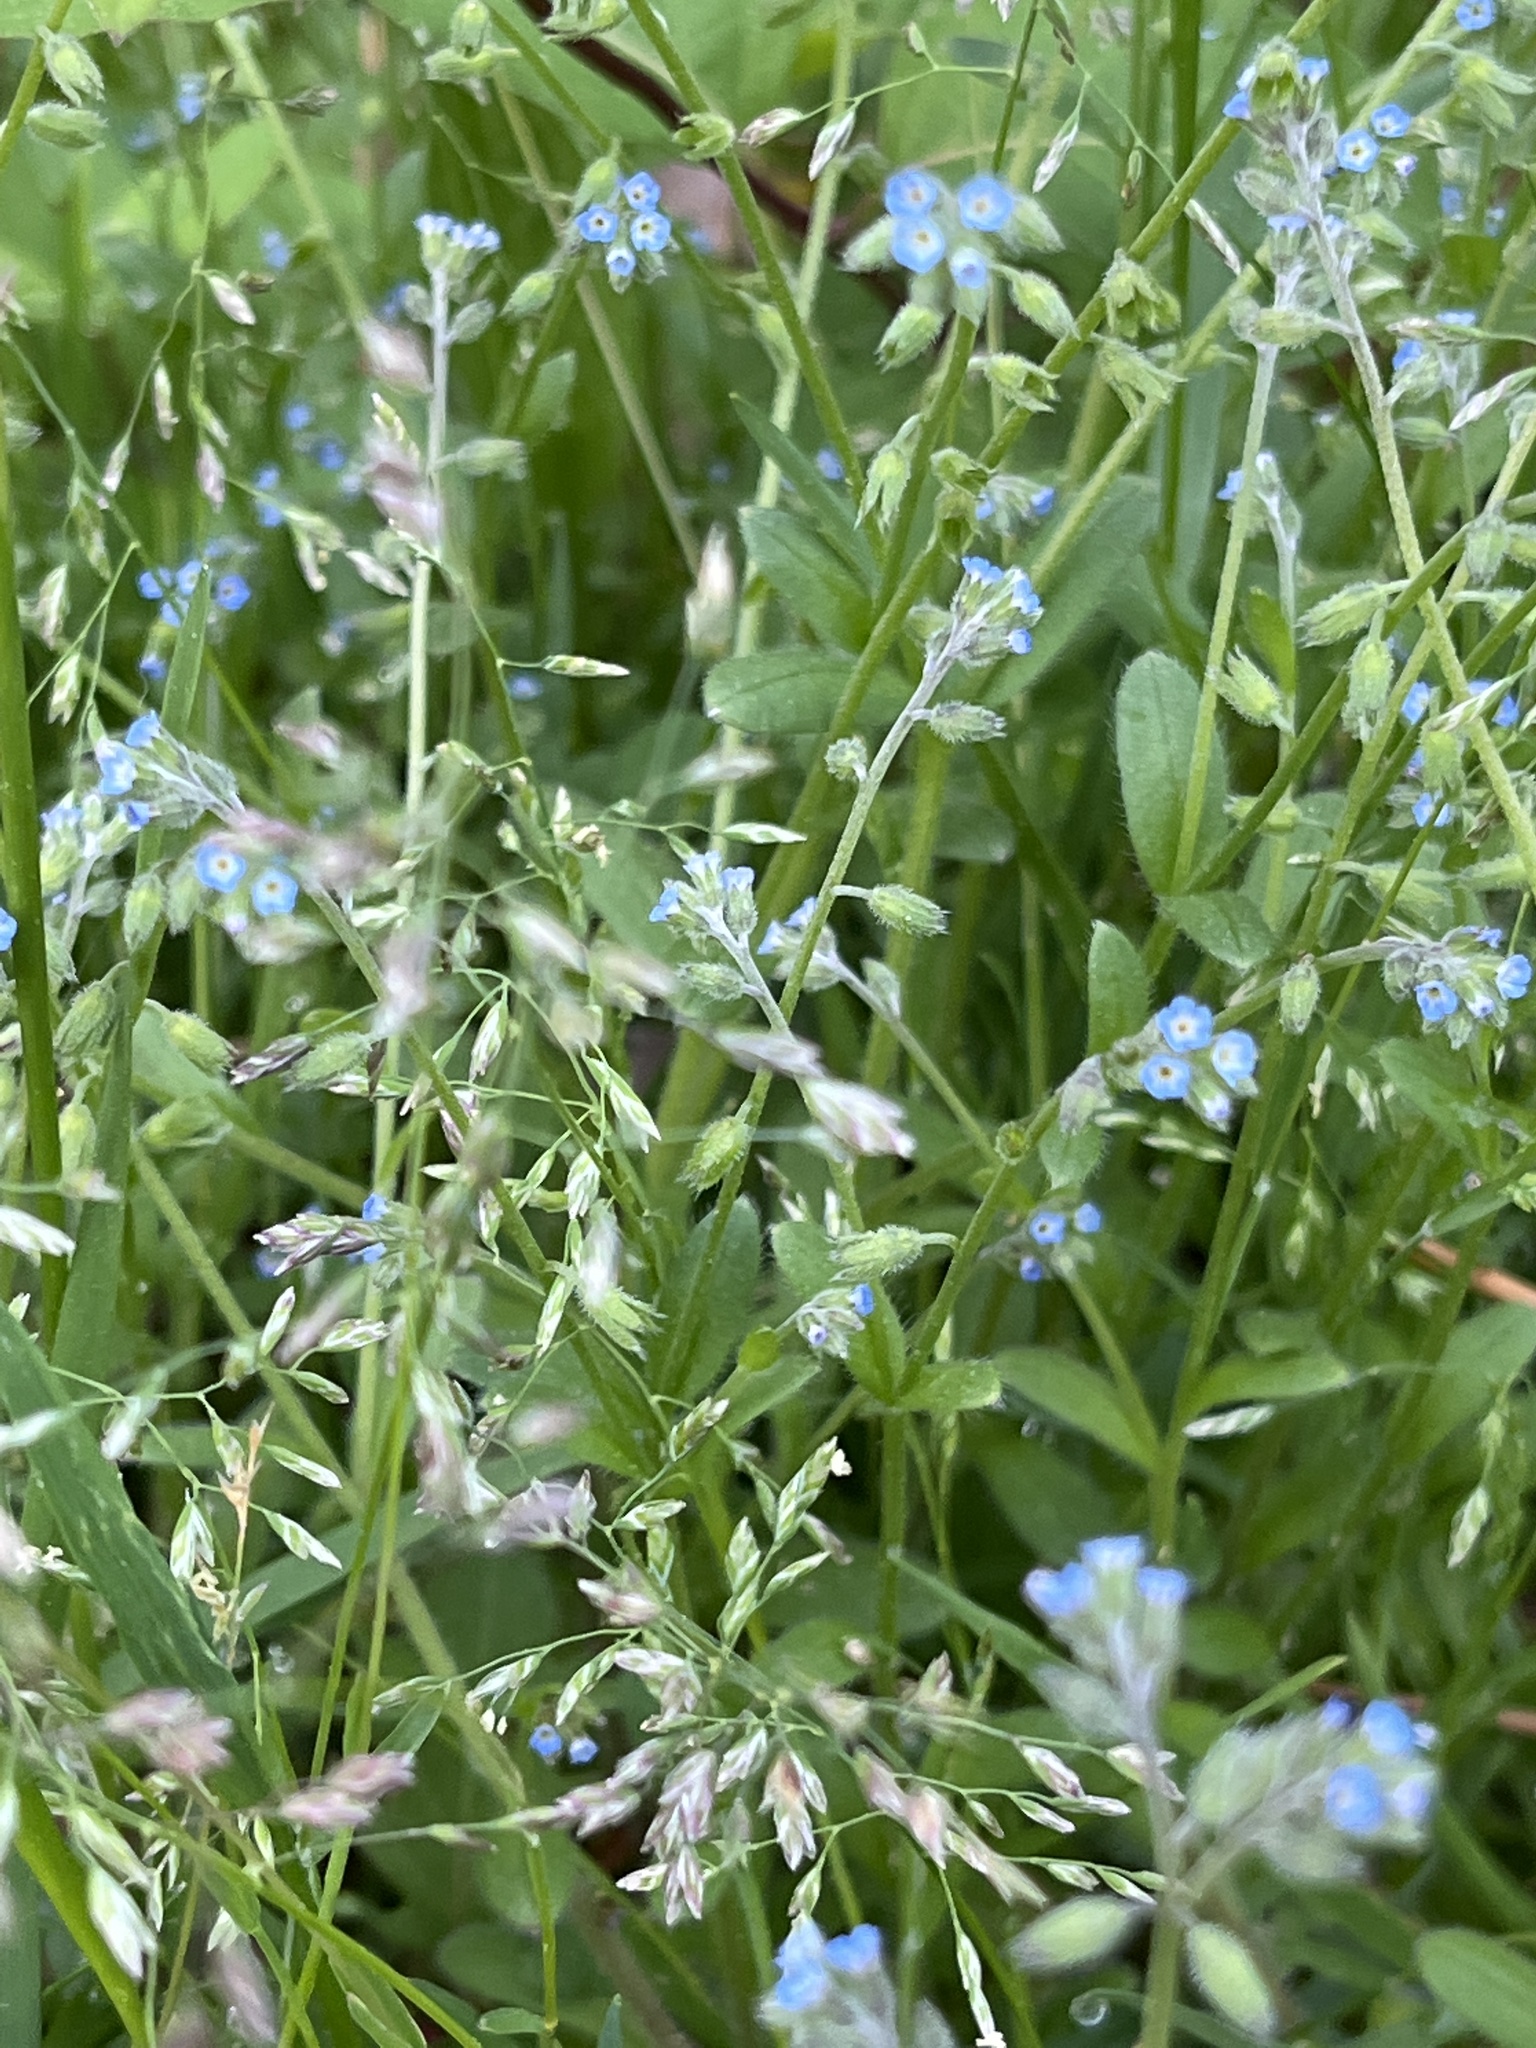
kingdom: Plantae
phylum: Tracheophyta
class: Magnoliopsida
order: Boraginales
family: Boraginaceae
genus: Myosotis
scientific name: Myosotis ramosissima
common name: Early forget-me-not
